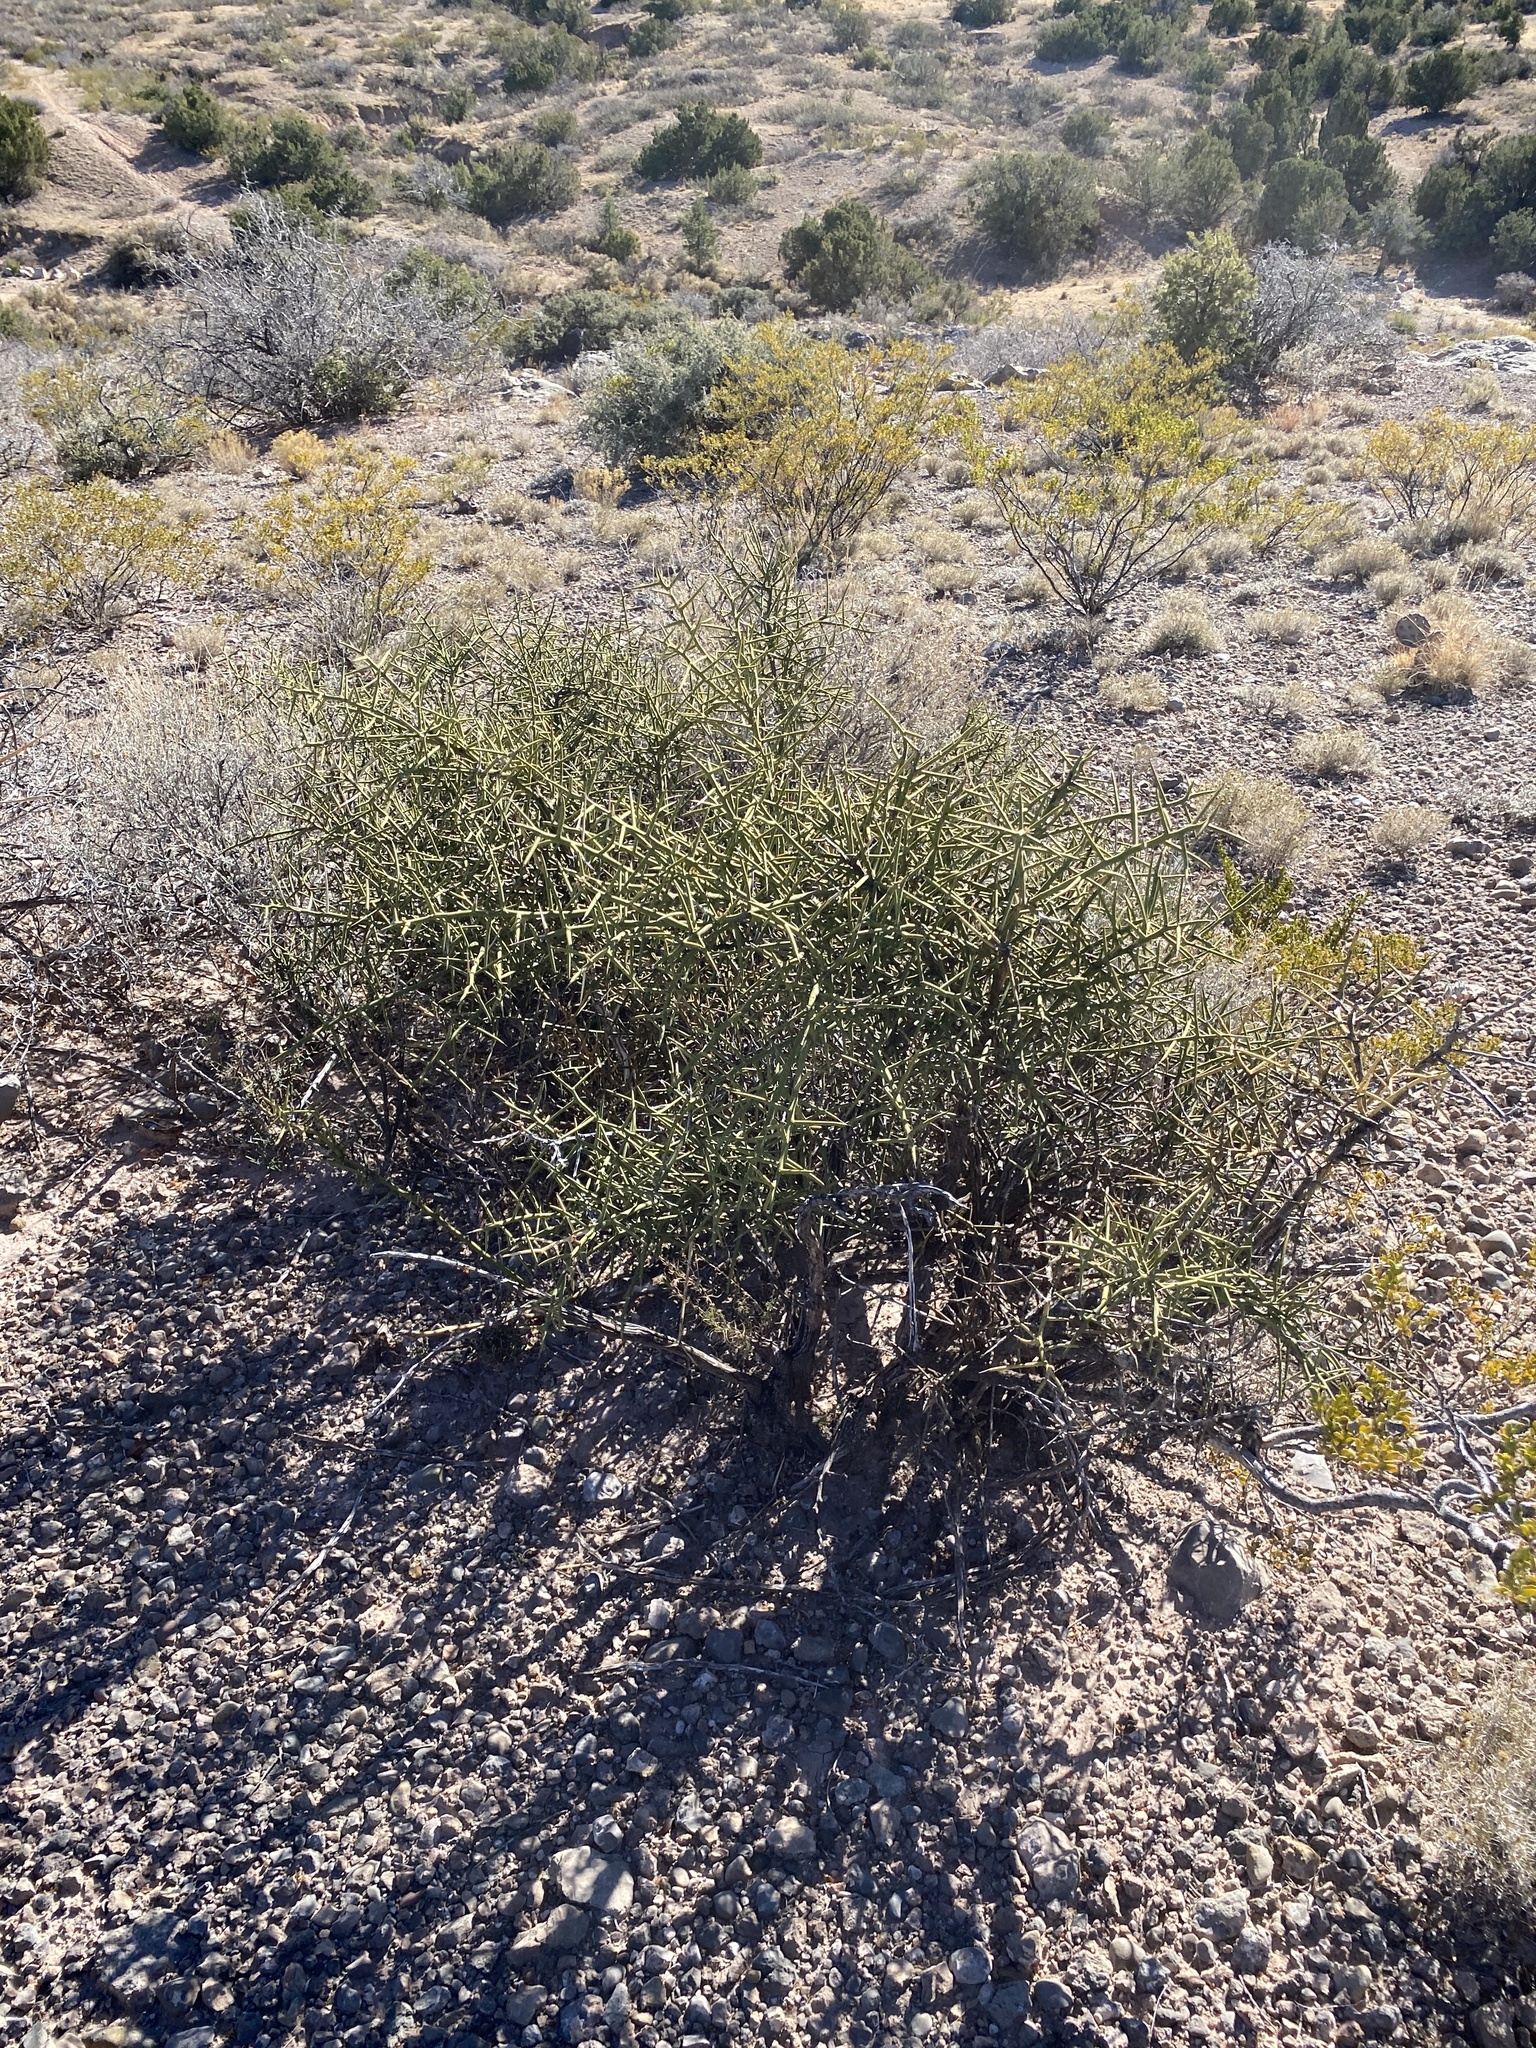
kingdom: Plantae
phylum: Tracheophyta
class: Magnoliopsida
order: Brassicales
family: Koeberliniaceae
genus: Koeberlinia
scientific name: Koeberlinia spinosa
